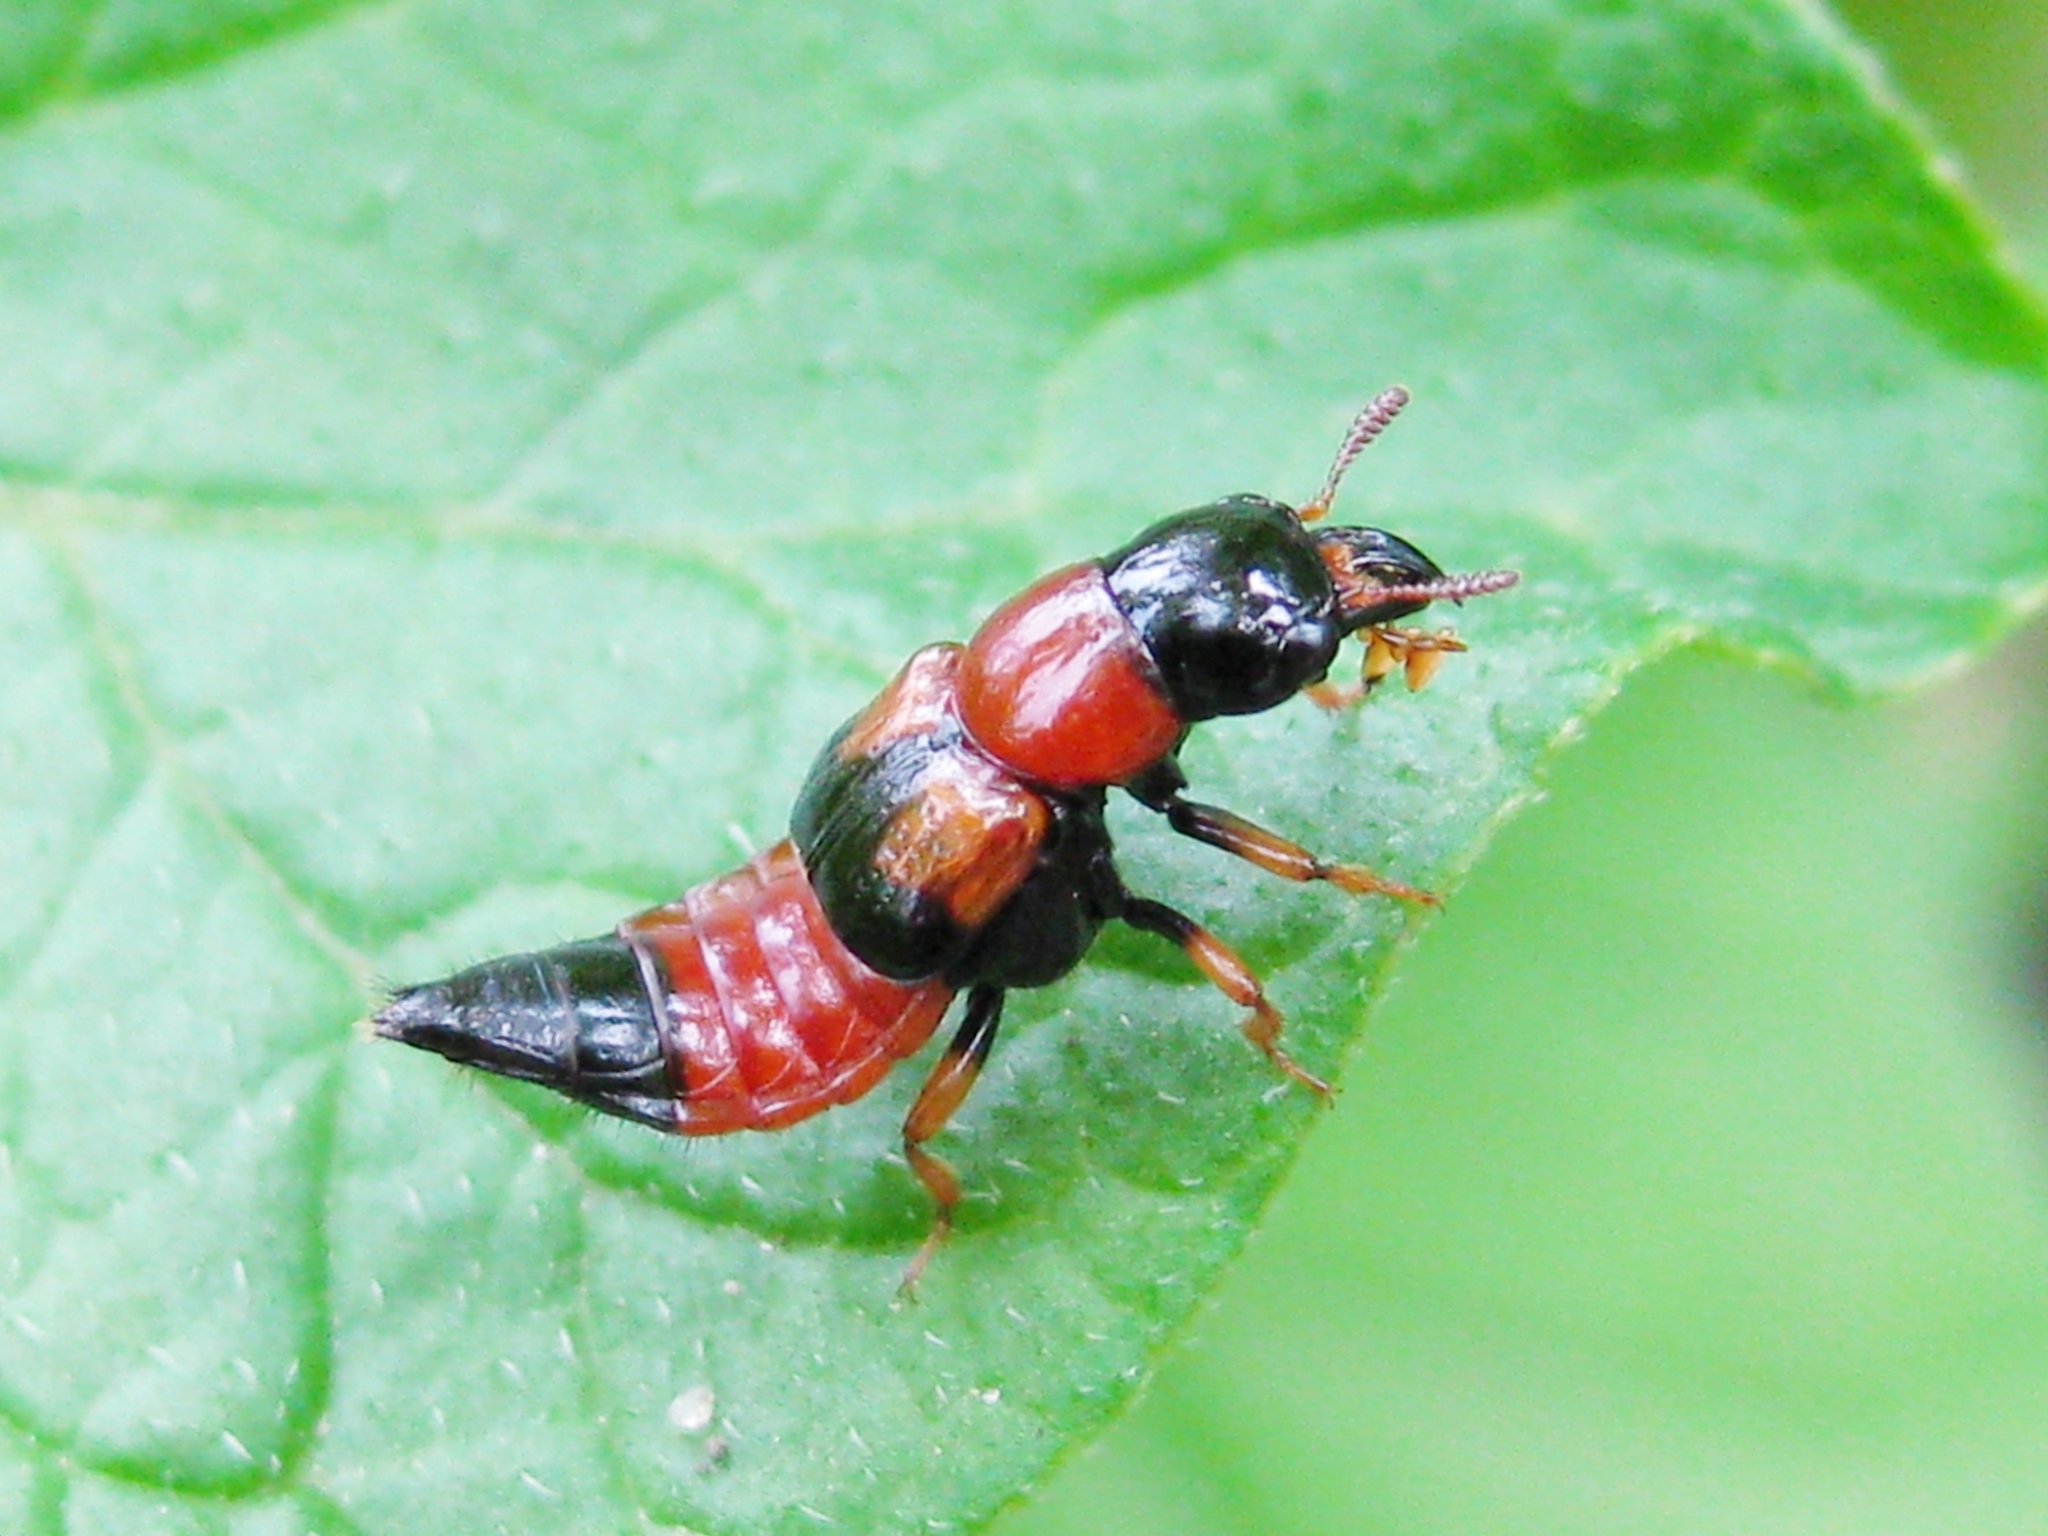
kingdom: Animalia
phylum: Arthropoda
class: Insecta
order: Coleoptera
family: Staphylinidae
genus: Oxyporus
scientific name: Oxyporus rufus
